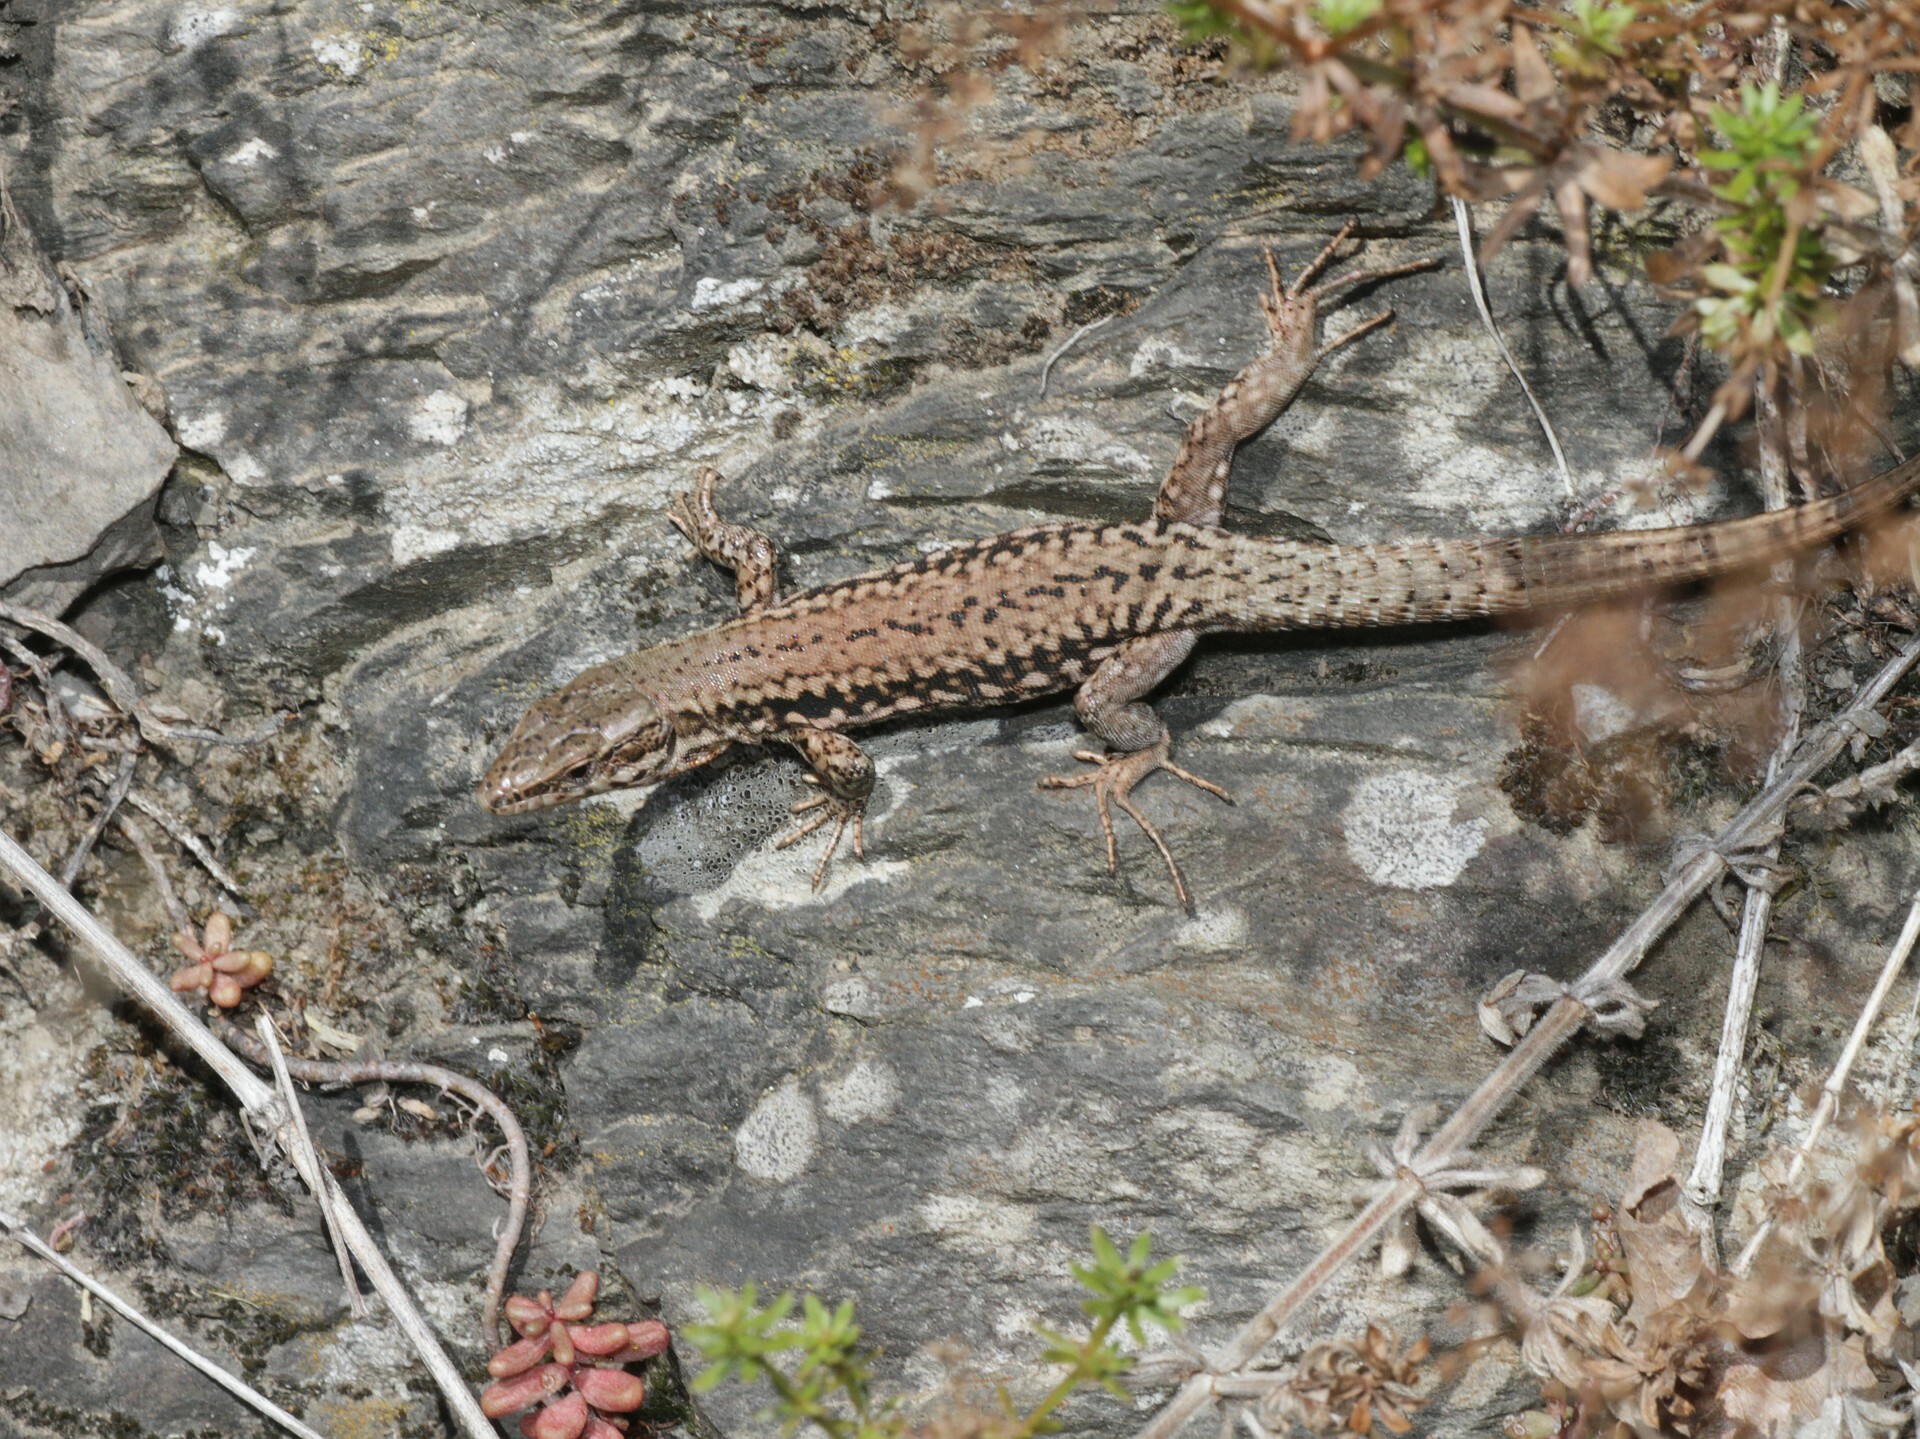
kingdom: Animalia
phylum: Chordata
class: Squamata
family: Lacertidae
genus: Podarcis
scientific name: Podarcis muralis
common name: Common wall lizard
